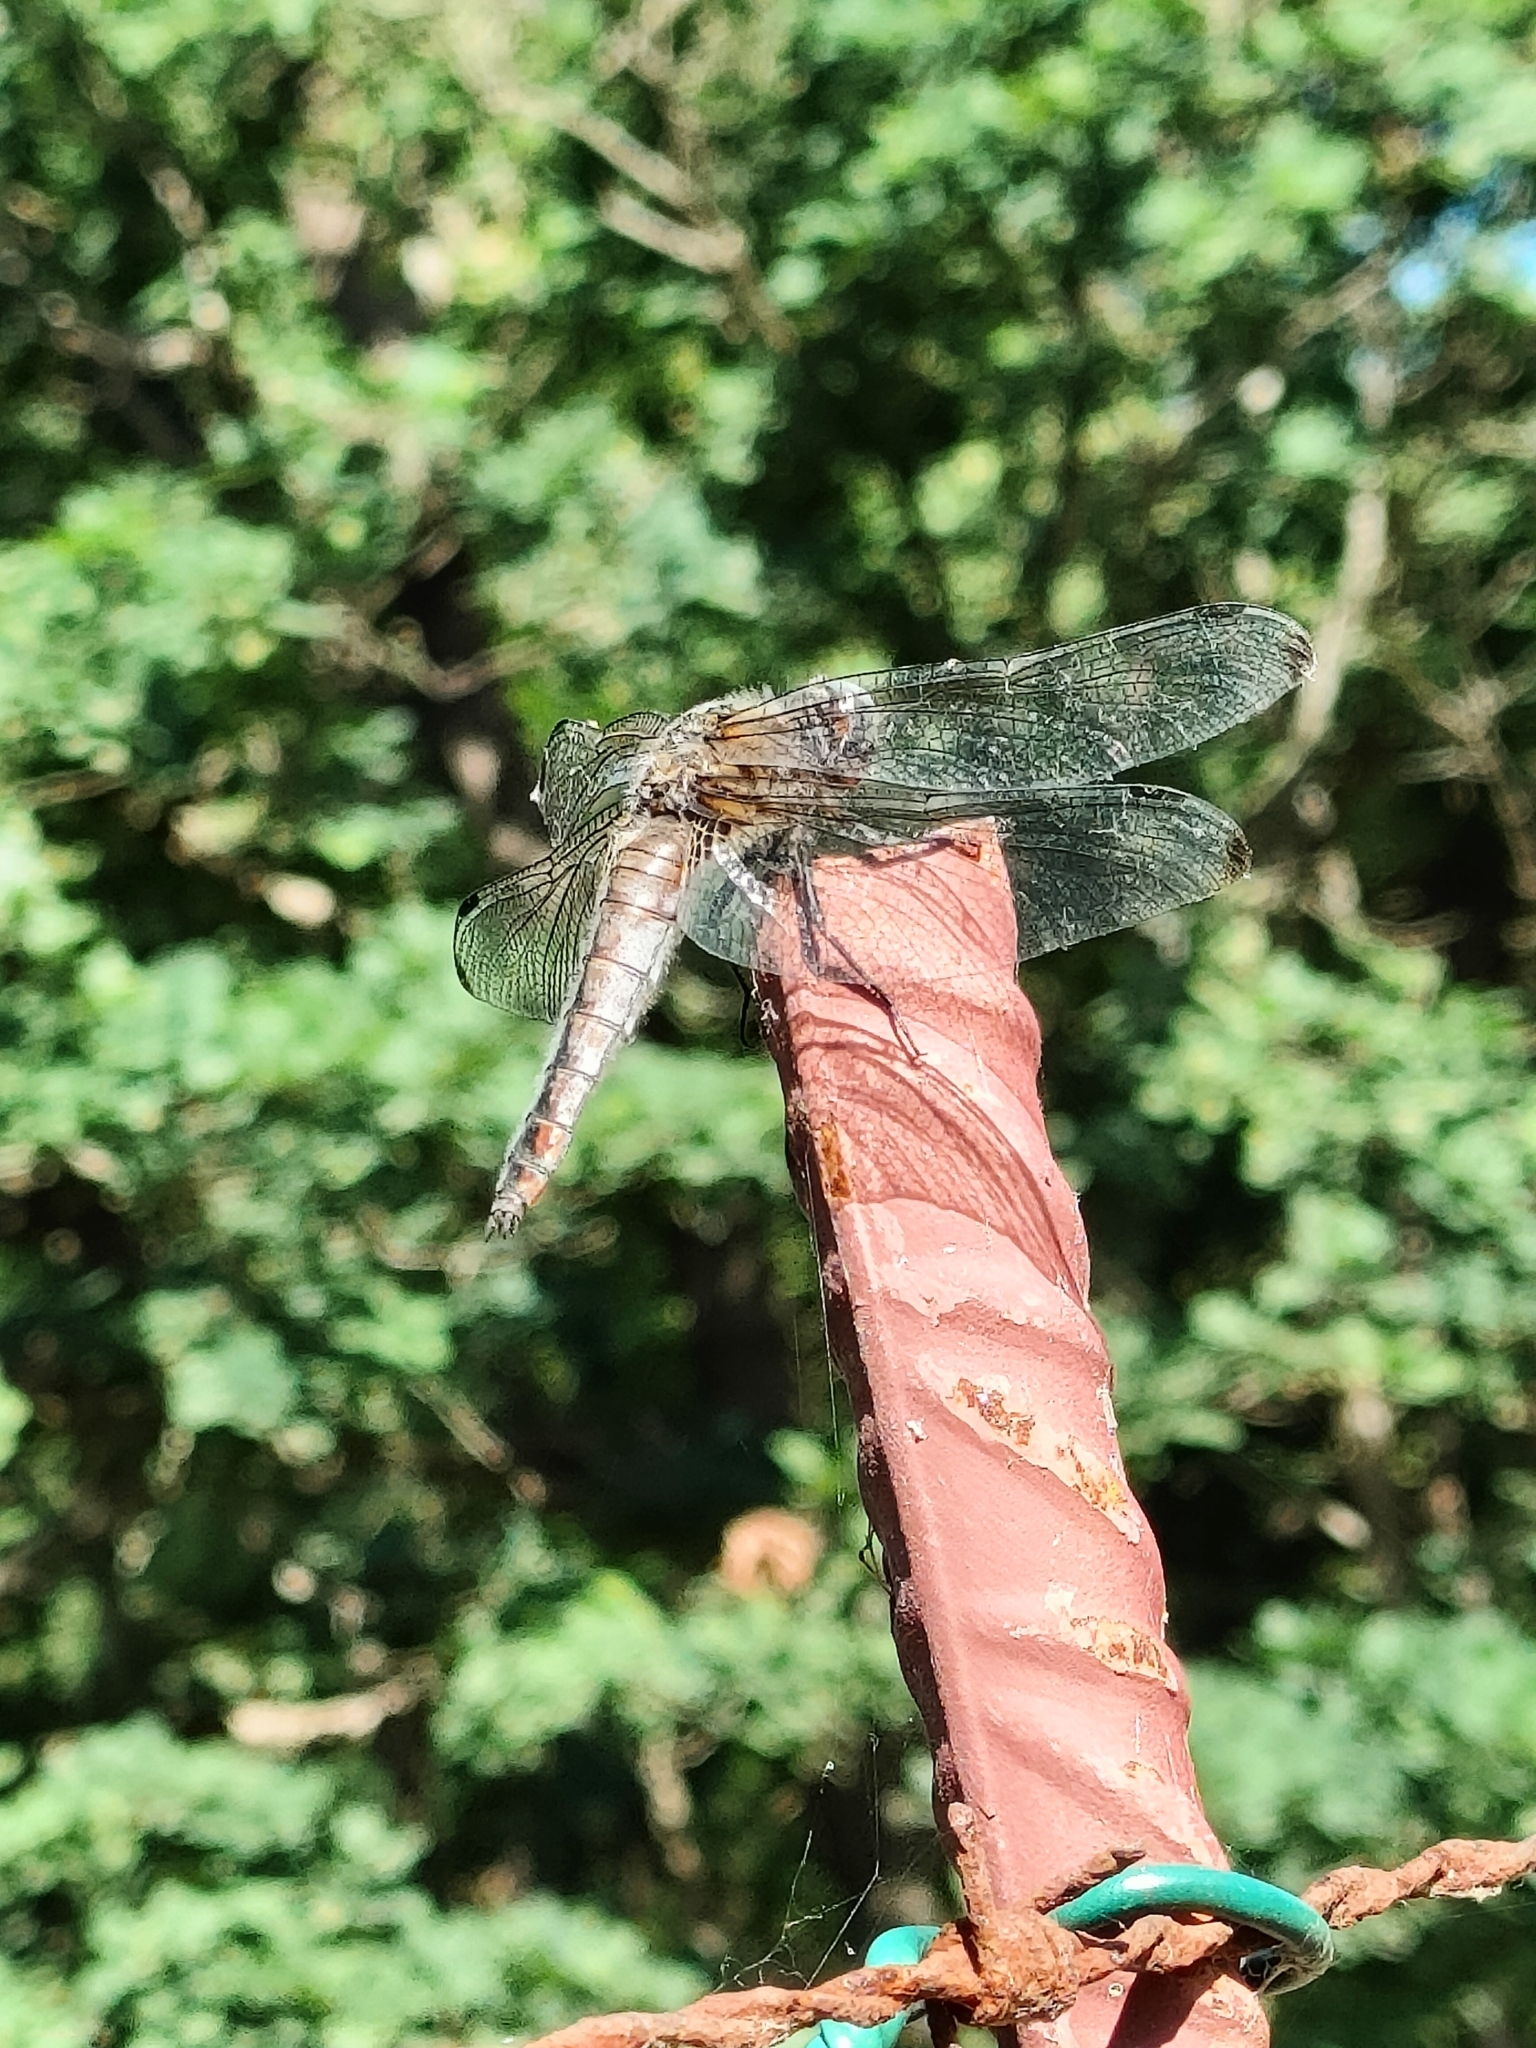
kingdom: Animalia
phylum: Arthropoda
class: Insecta
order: Odonata
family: Libellulidae
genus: Libellula
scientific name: Libellula fulva
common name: Blue chaser
